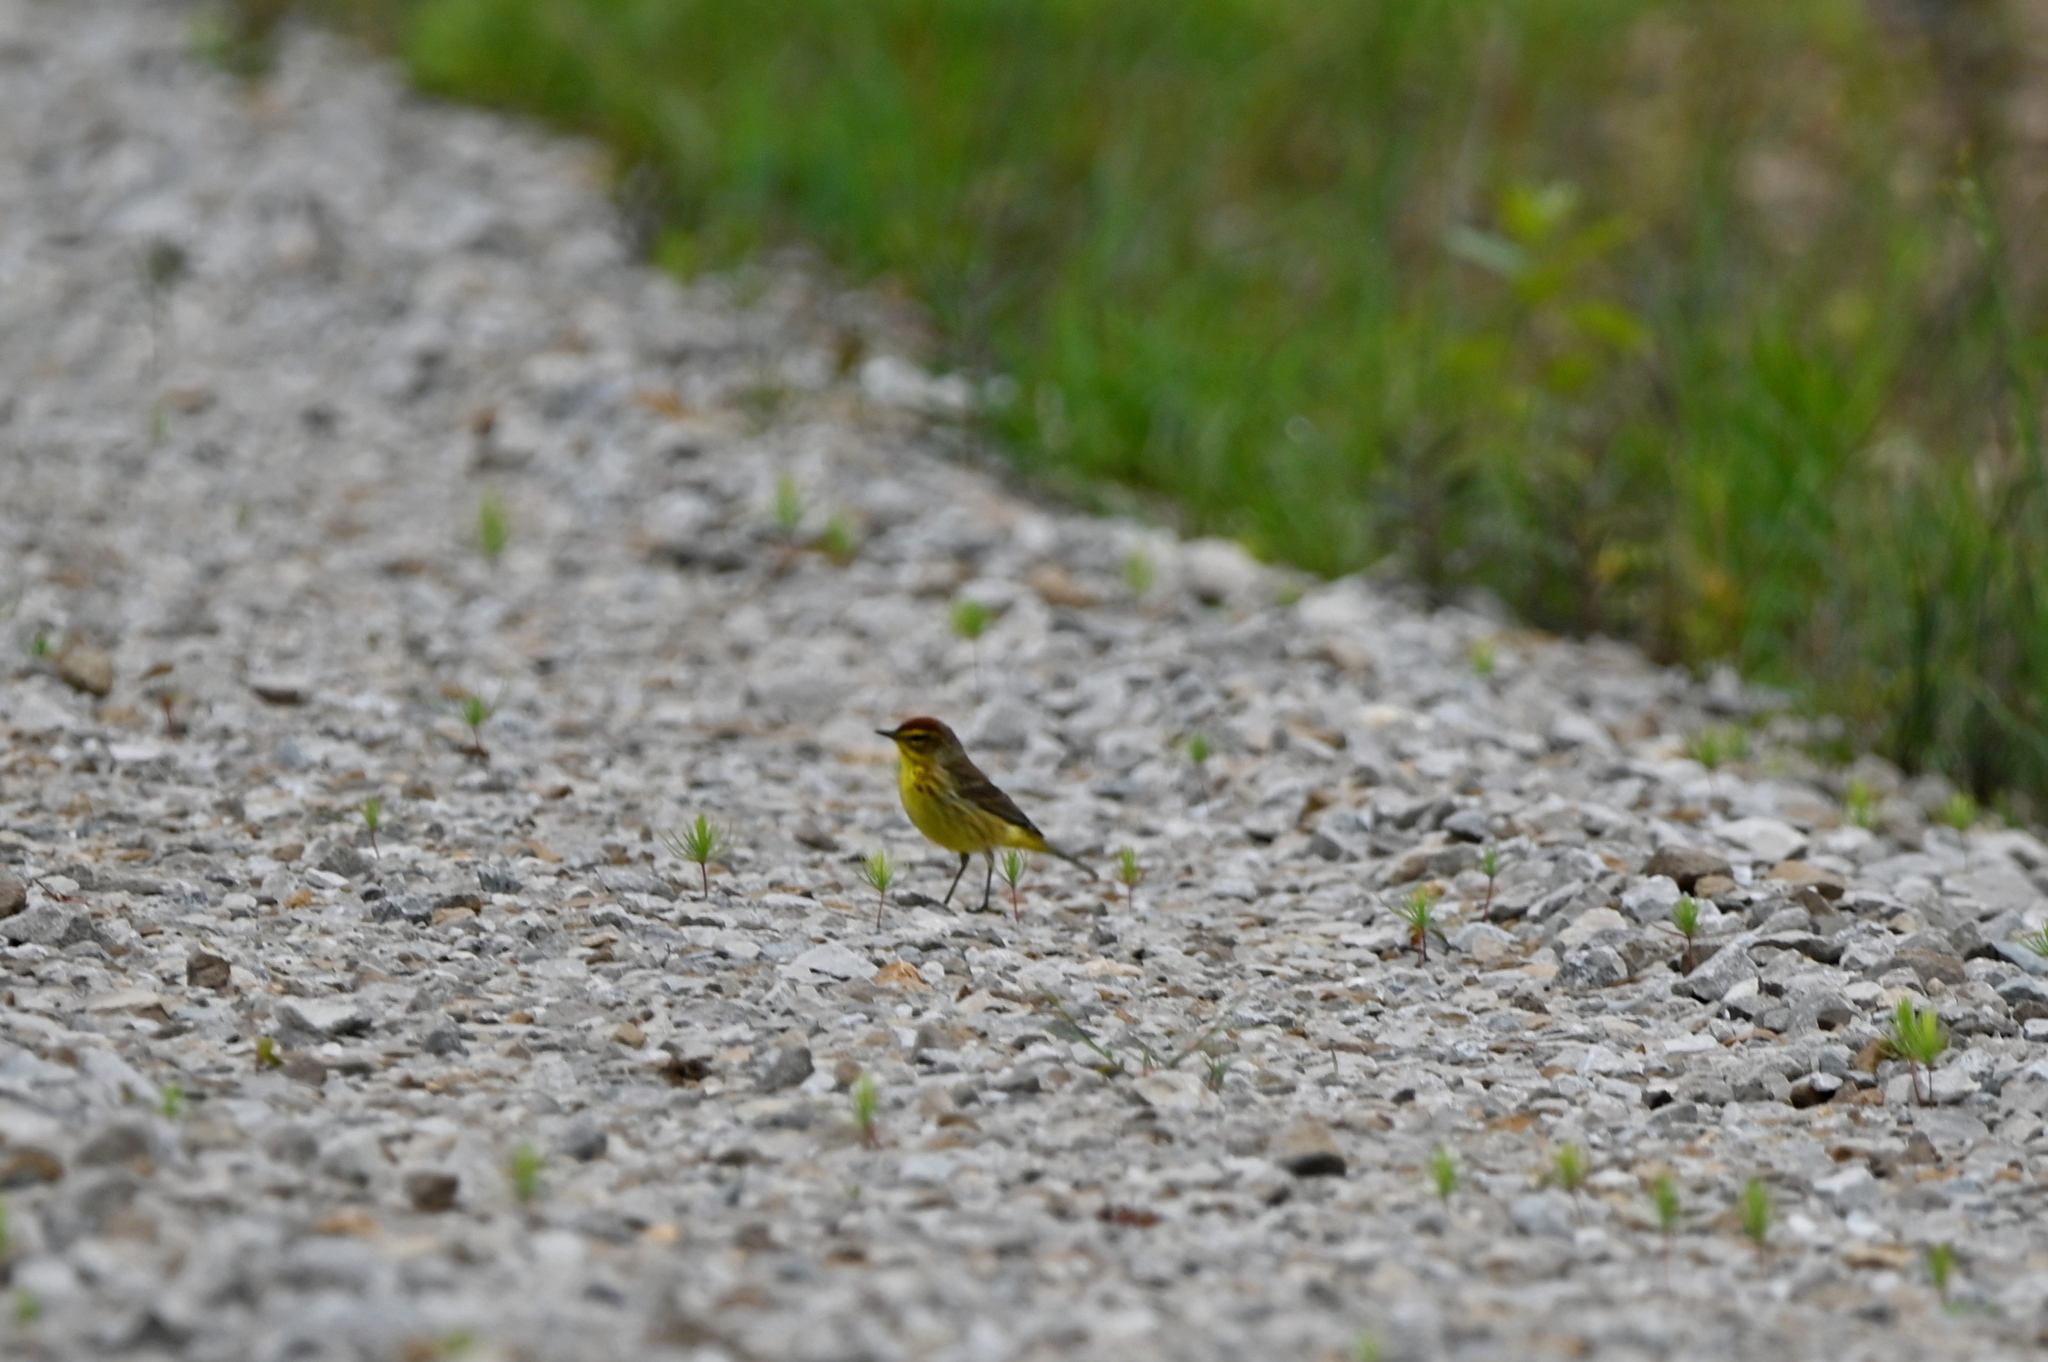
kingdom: Animalia
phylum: Chordata
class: Aves
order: Passeriformes
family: Parulidae
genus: Setophaga
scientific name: Setophaga palmarum
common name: Palm warbler
